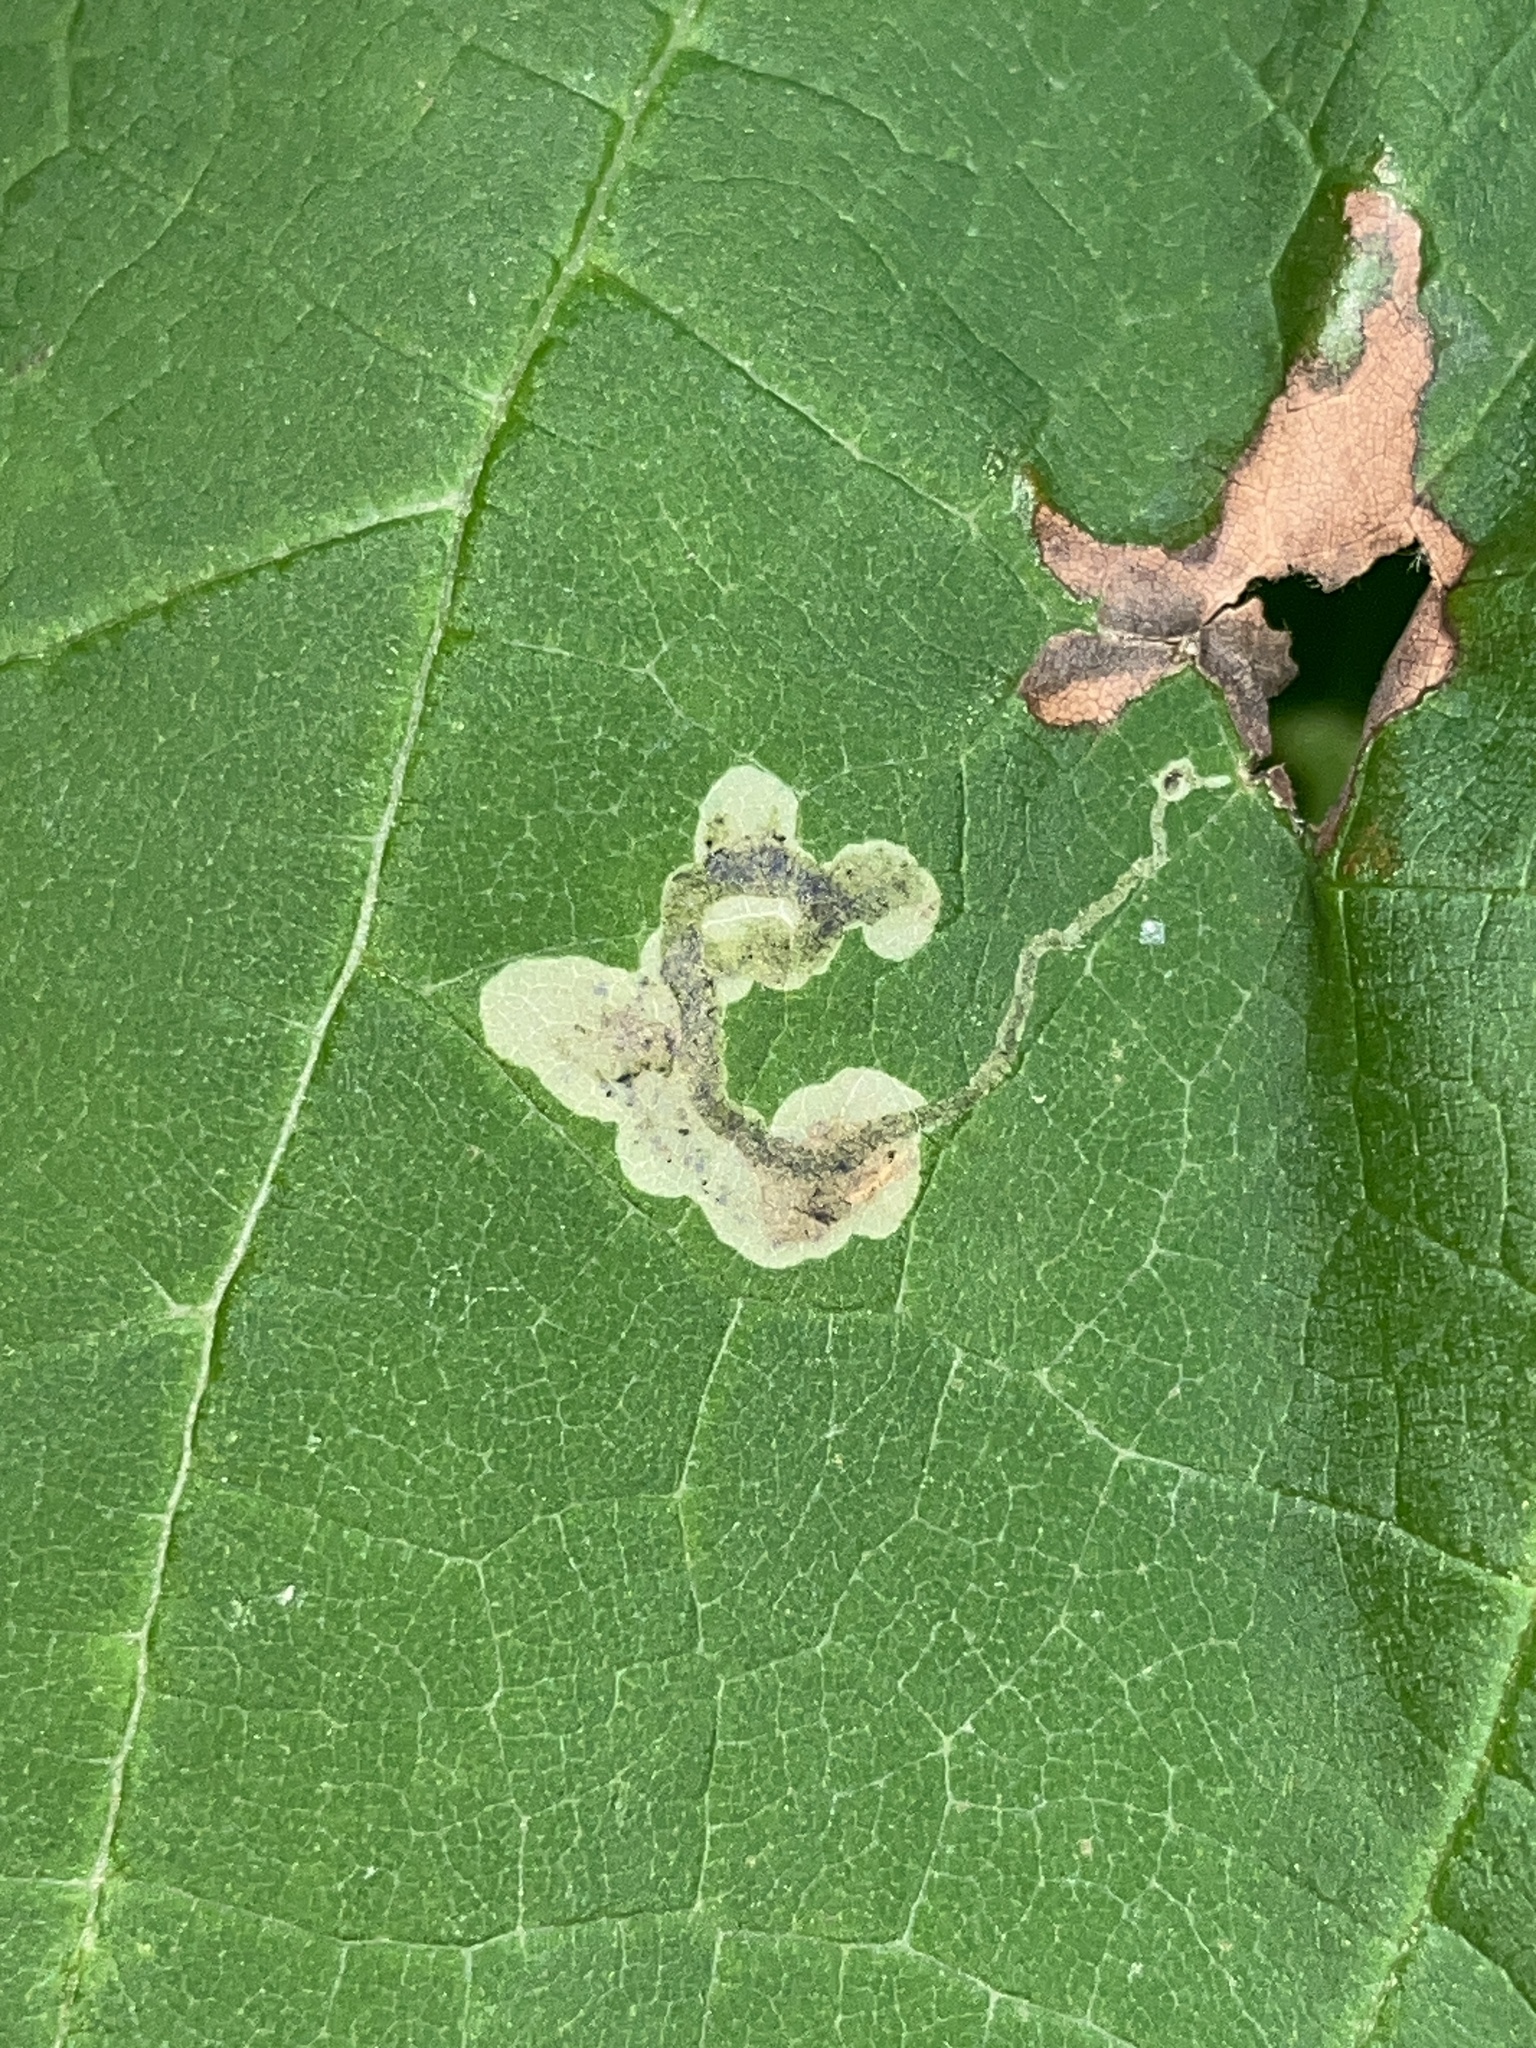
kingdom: Animalia
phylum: Arthropoda
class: Insecta
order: Diptera
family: Agromyzidae
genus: Amauromyza
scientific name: Amauromyza pleuralis
